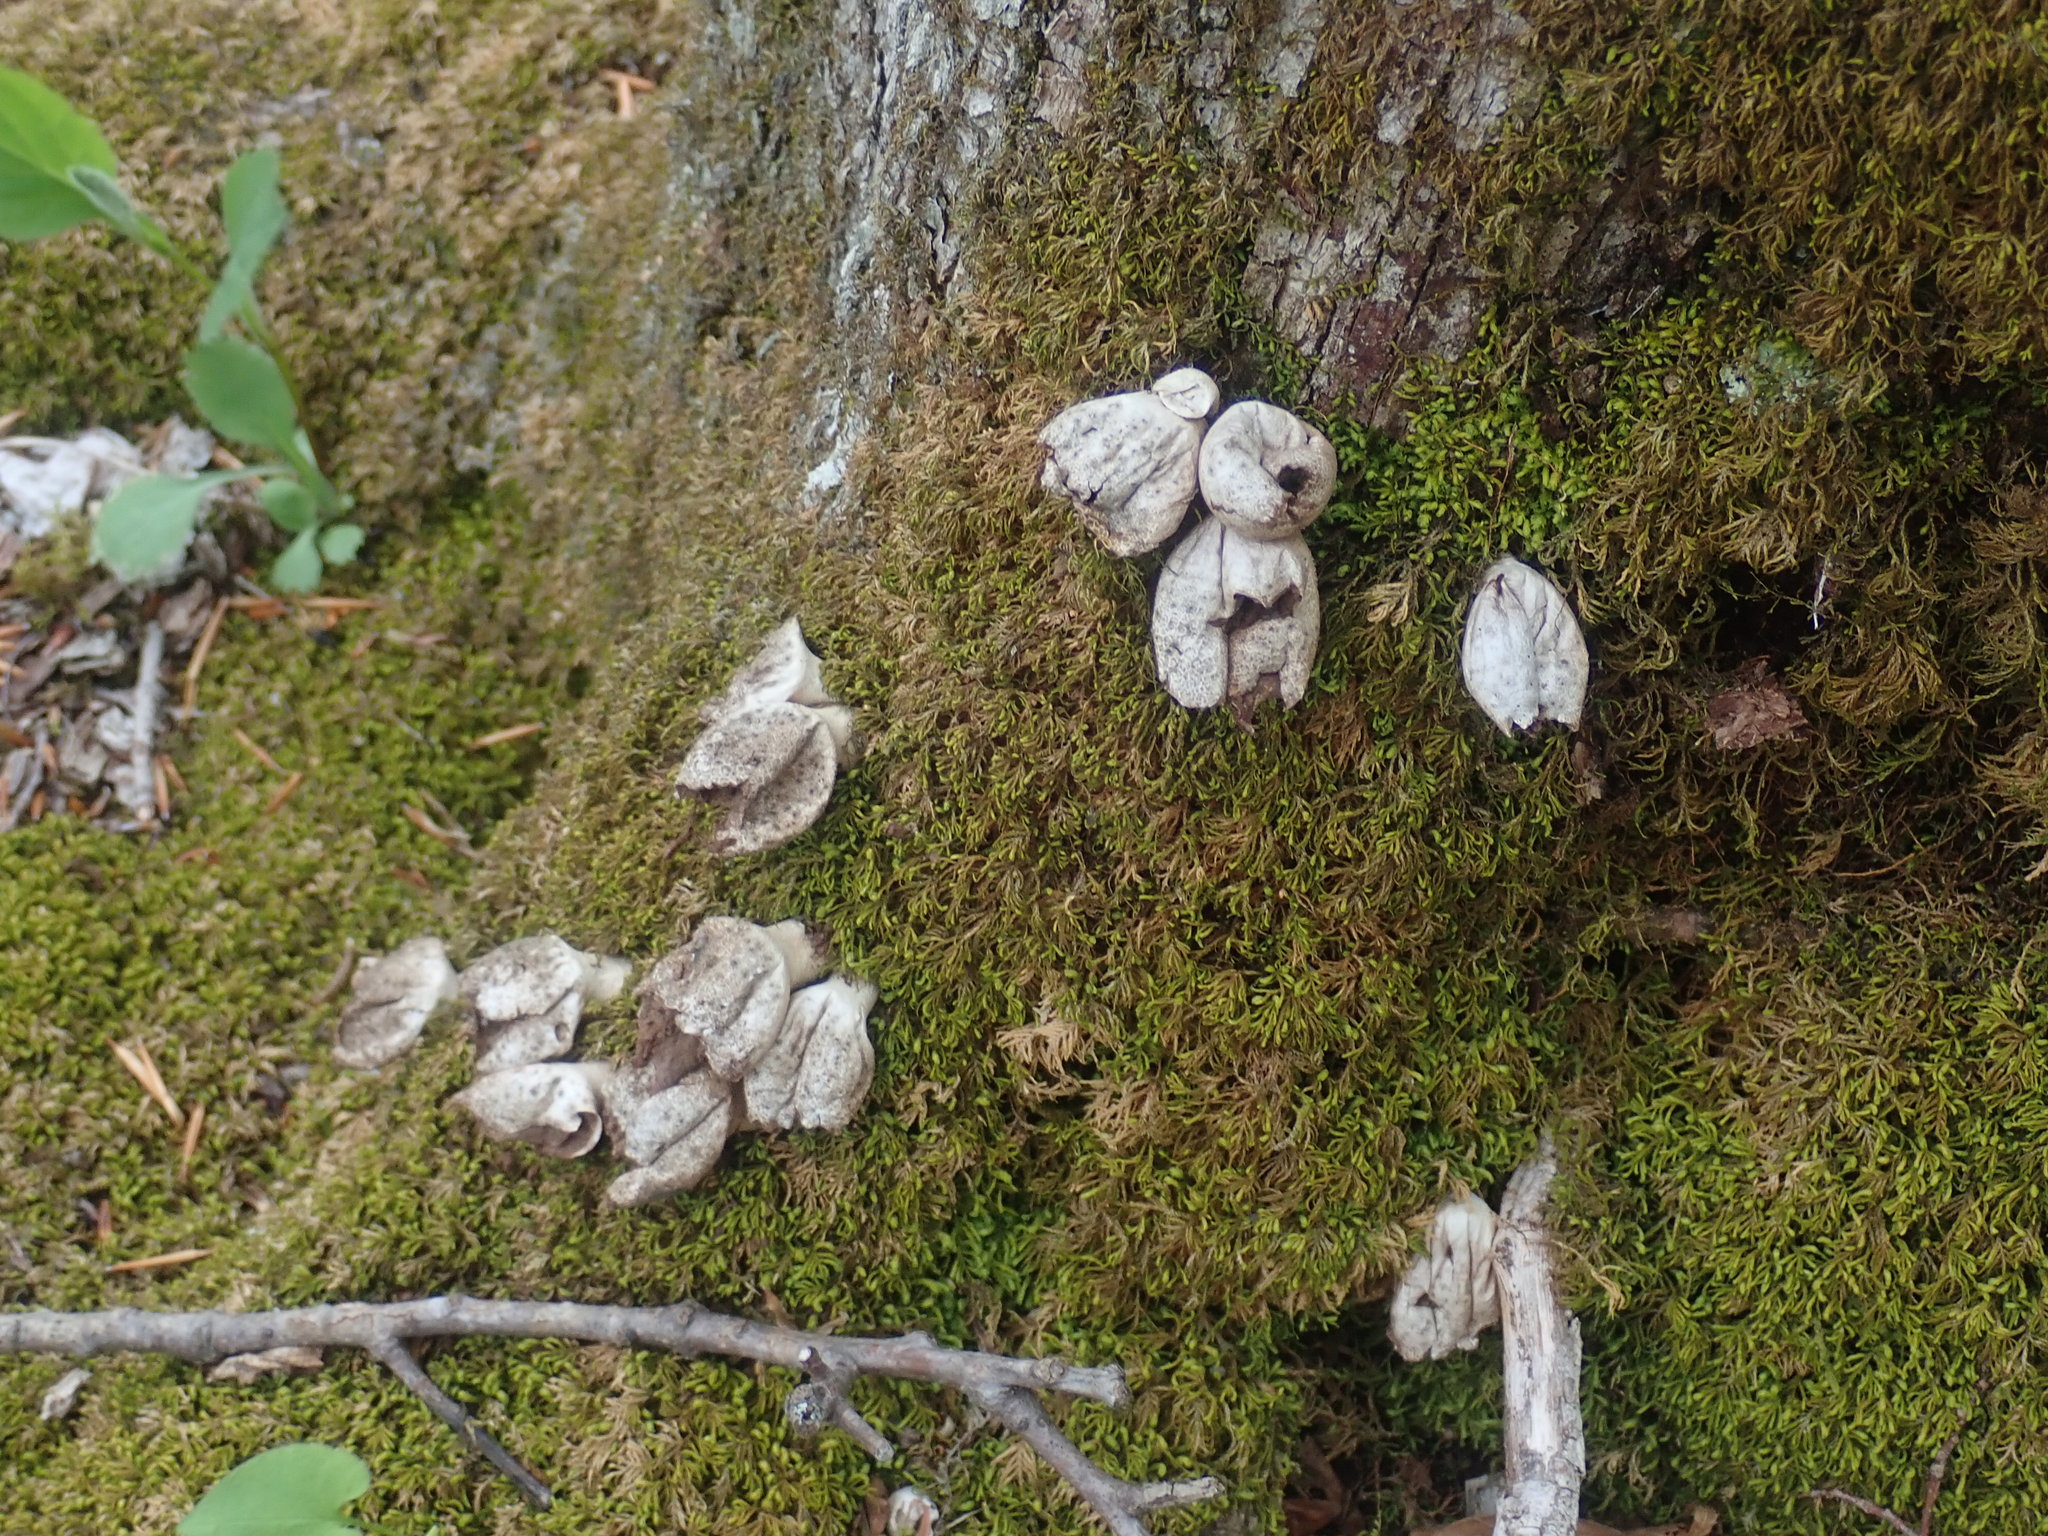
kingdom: Fungi
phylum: Basidiomycota
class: Agaricomycetes
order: Agaricales
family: Lycoperdaceae
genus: Apioperdon
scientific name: Apioperdon pyriforme
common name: Pear-shaped puffball
